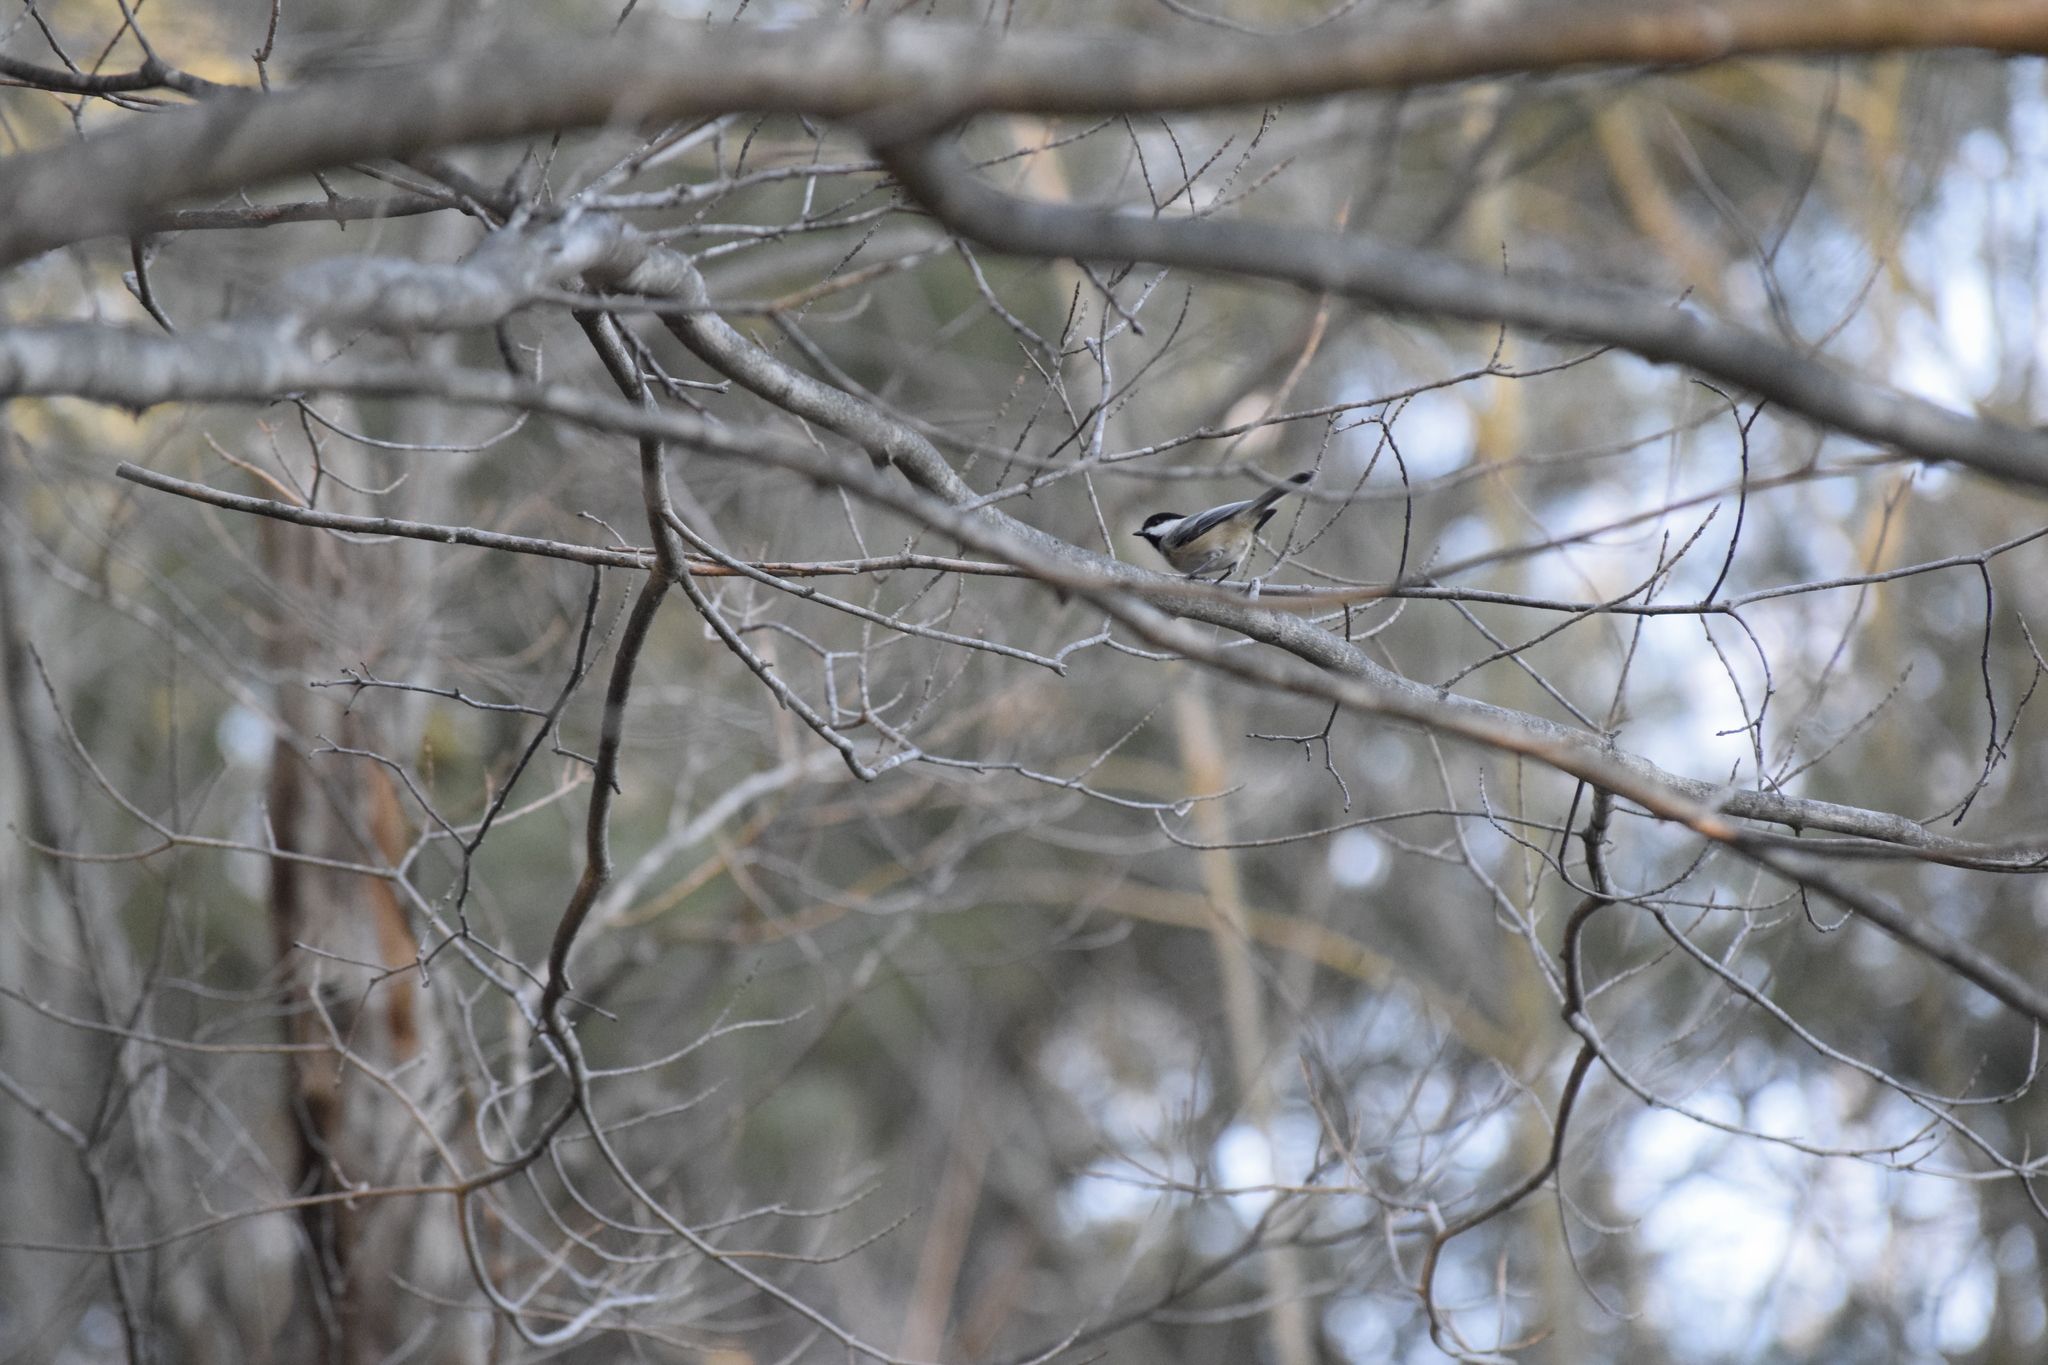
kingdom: Animalia
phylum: Chordata
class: Aves
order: Passeriformes
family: Paridae
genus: Poecile
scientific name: Poecile atricapillus
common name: Black-capped chickadee
